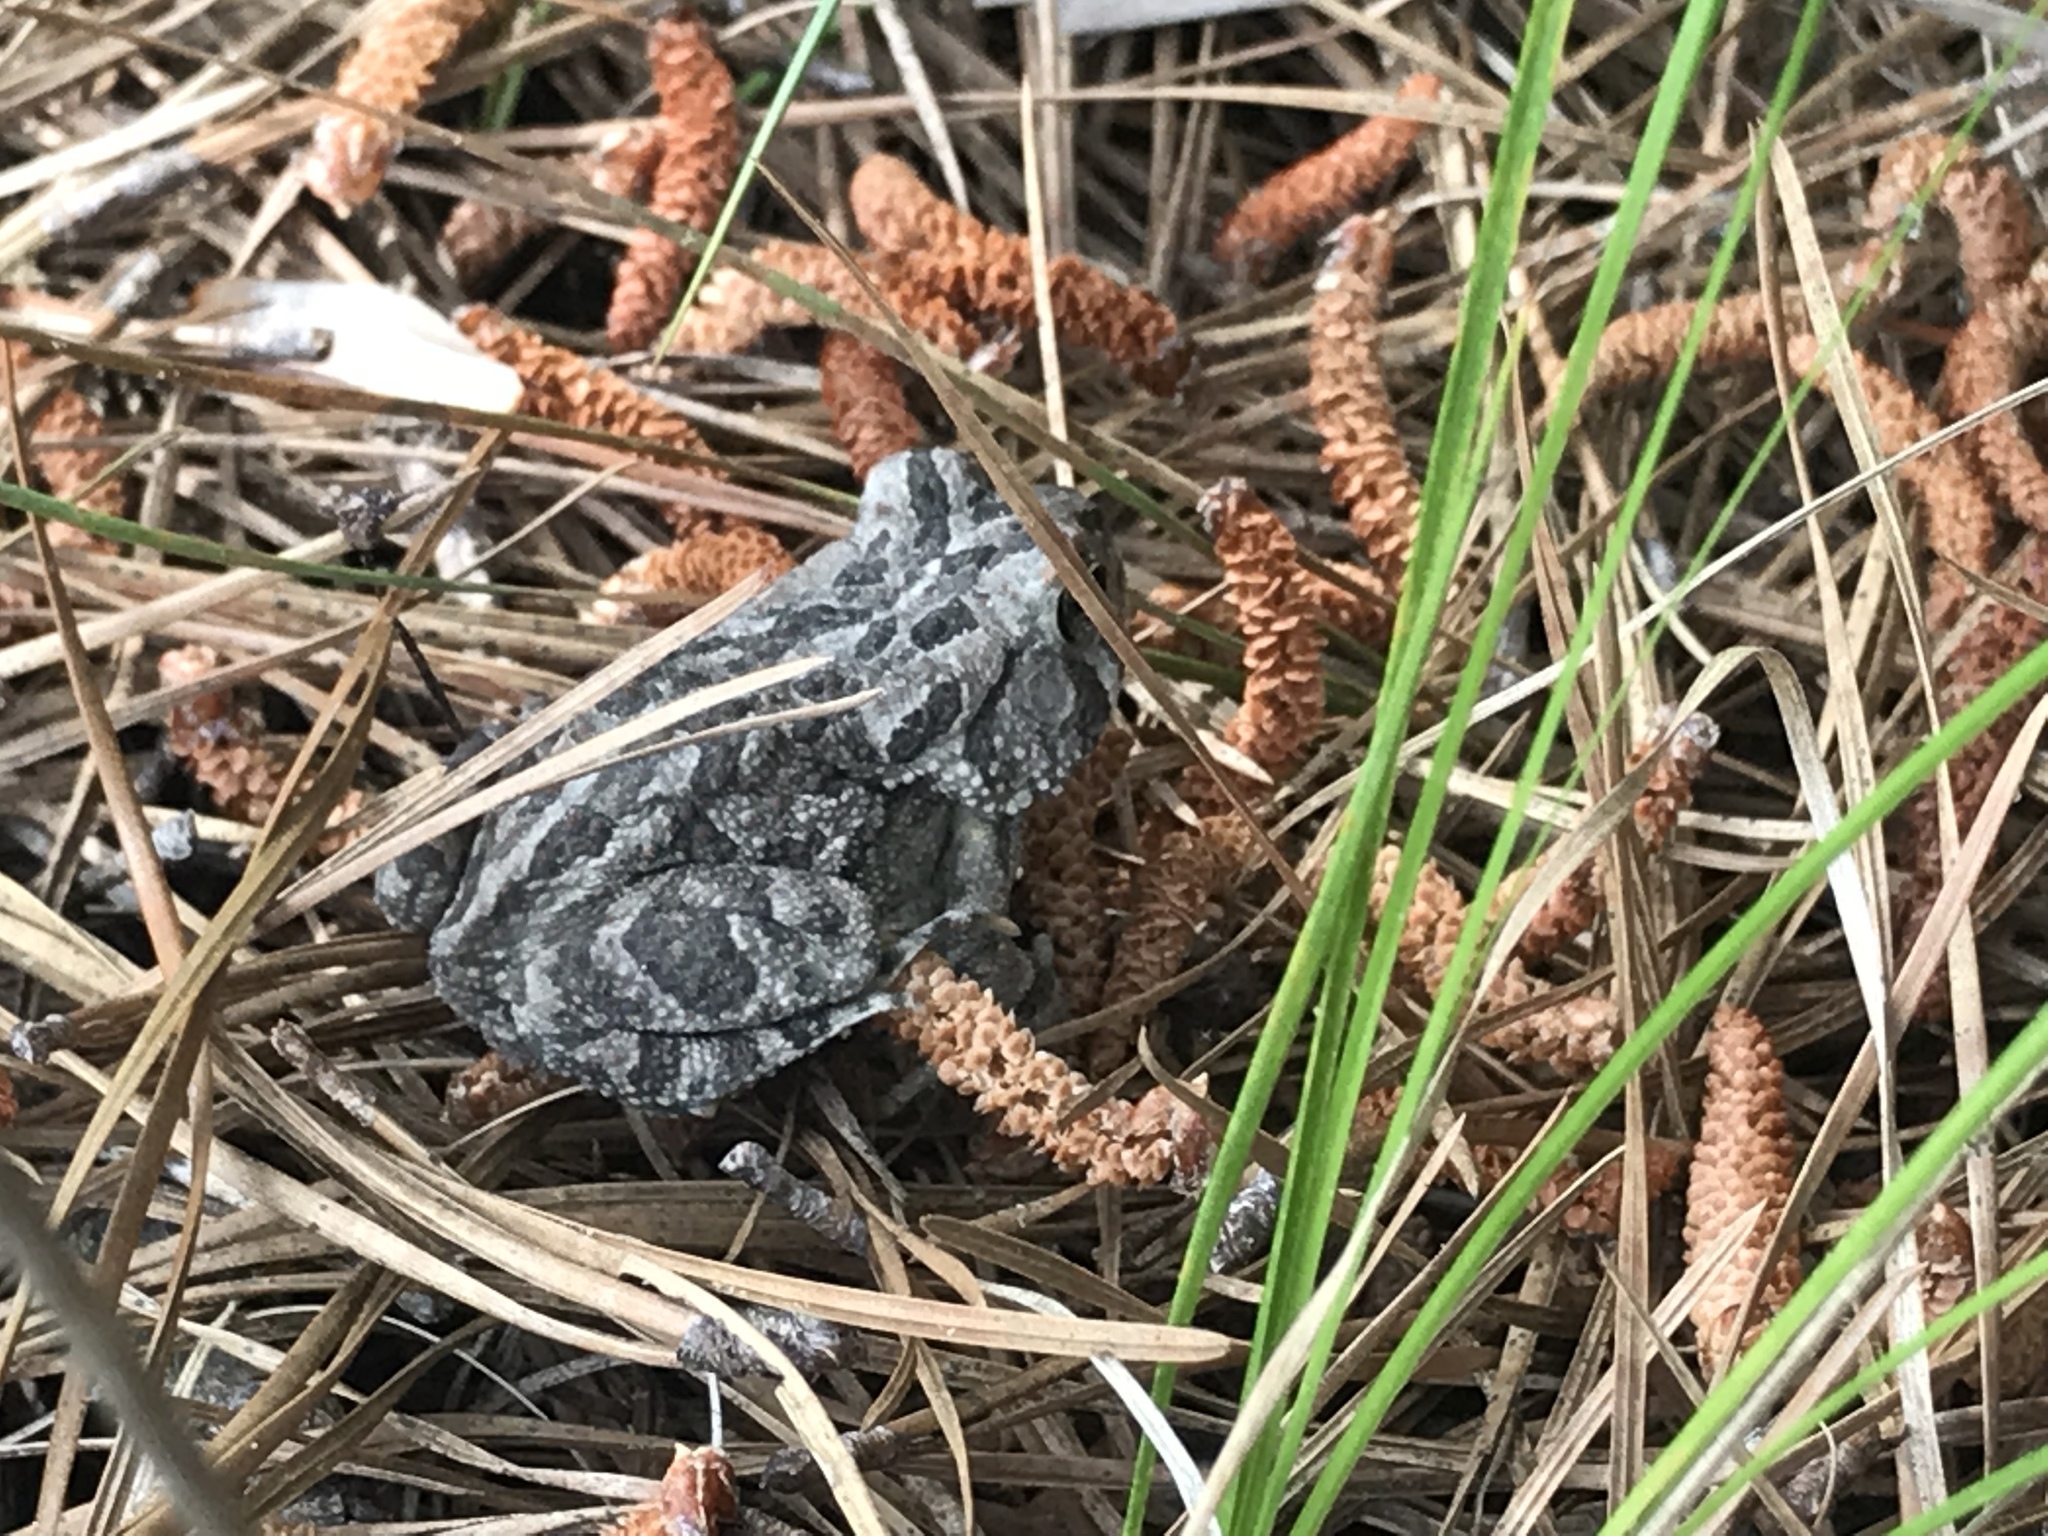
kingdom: Animalia
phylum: Chordata
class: Amphibia
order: Anura
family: Bufonidae
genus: Anaxyrus
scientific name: Anaxyrus fowleri
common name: Fowler's toad
